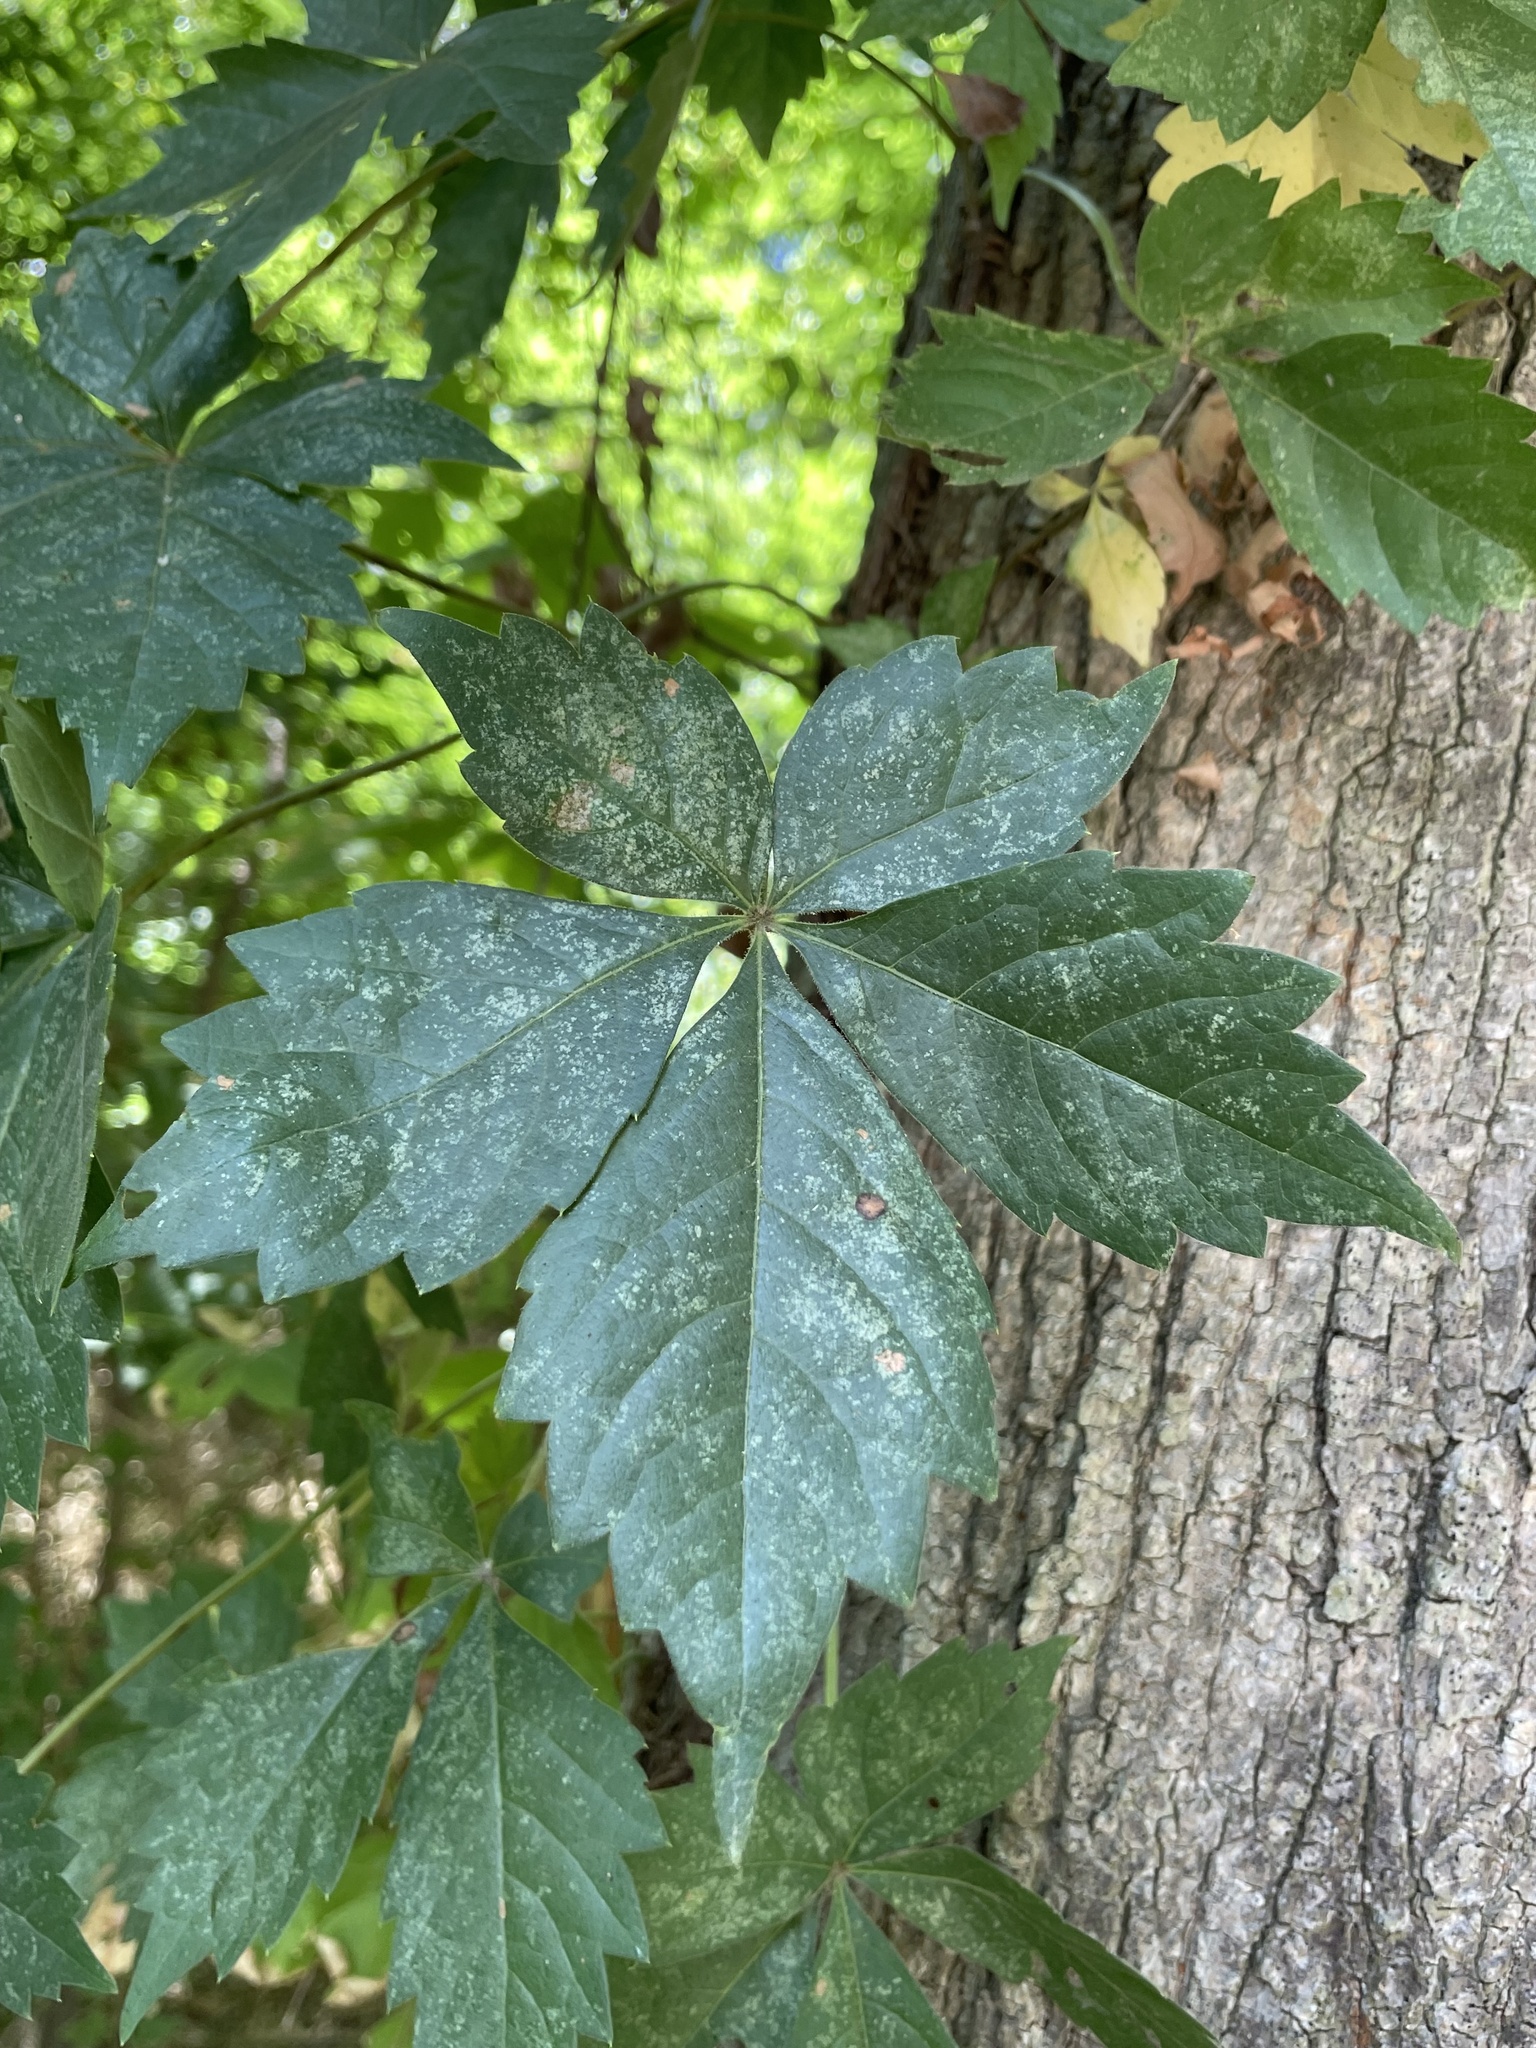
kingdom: Plantae
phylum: Tracheophyta
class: Magnoliopsida
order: Vitales
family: Vitaceae
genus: Parthenocissus
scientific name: Parthenocissus quinquefolia
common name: Virginia-creeper
